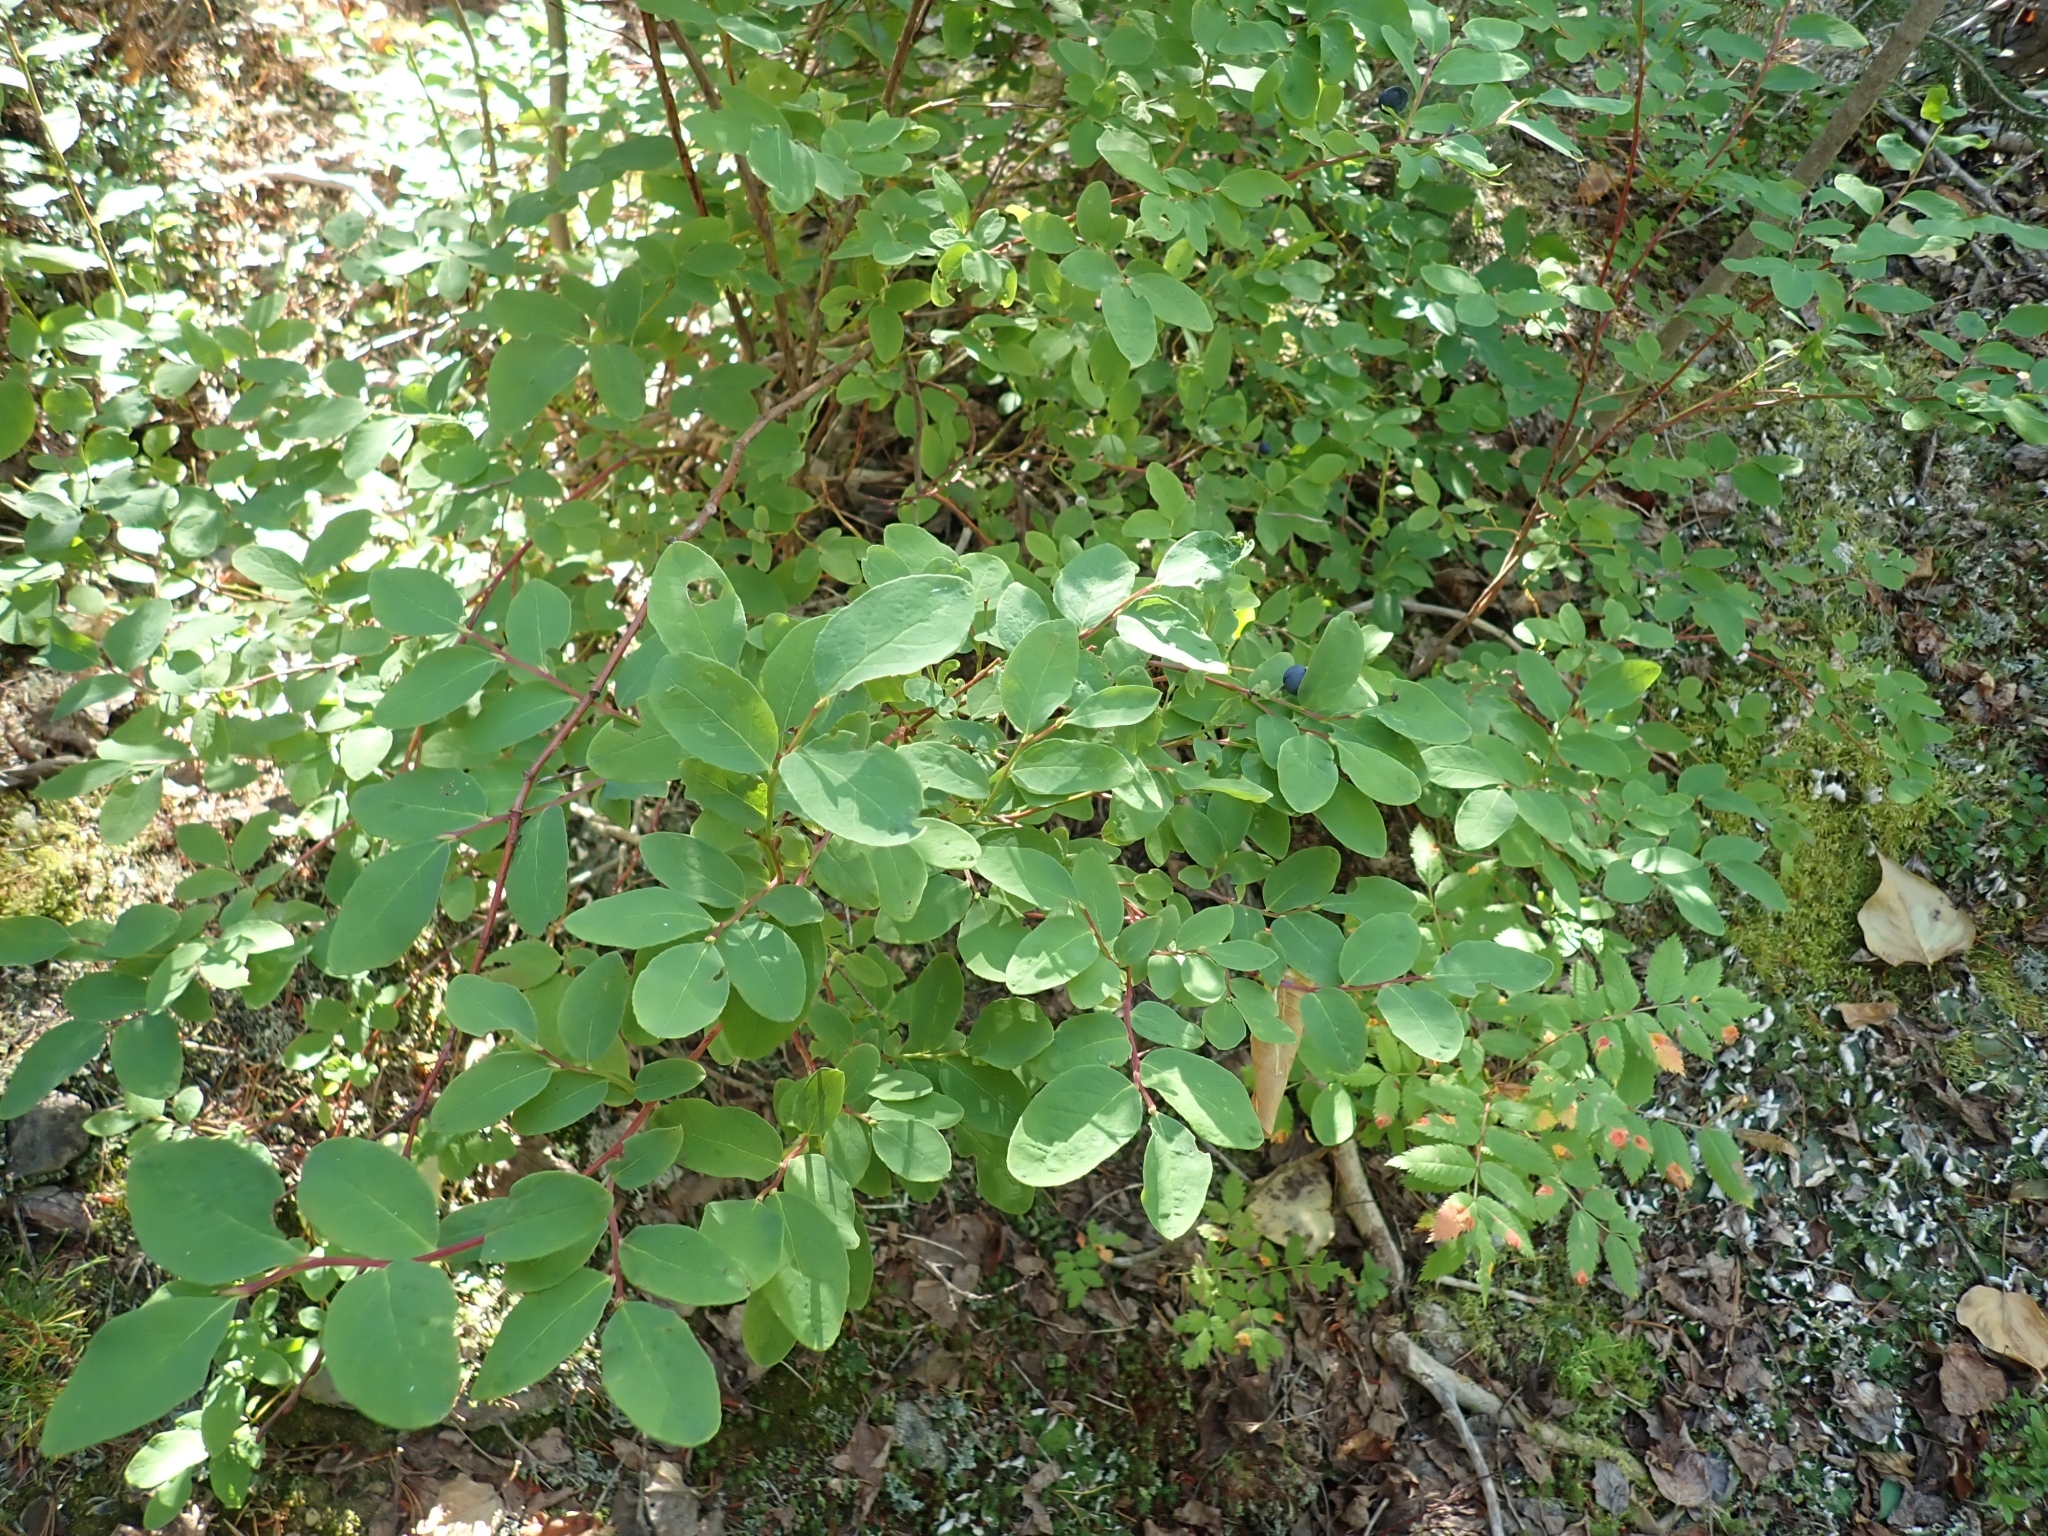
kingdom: Plantae
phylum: Tracheophyta
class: Magnoliopsida
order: Ericales
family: Ericaceae
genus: Vaccinium
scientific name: Vaccinium ovalifolium
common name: Early blueberry
